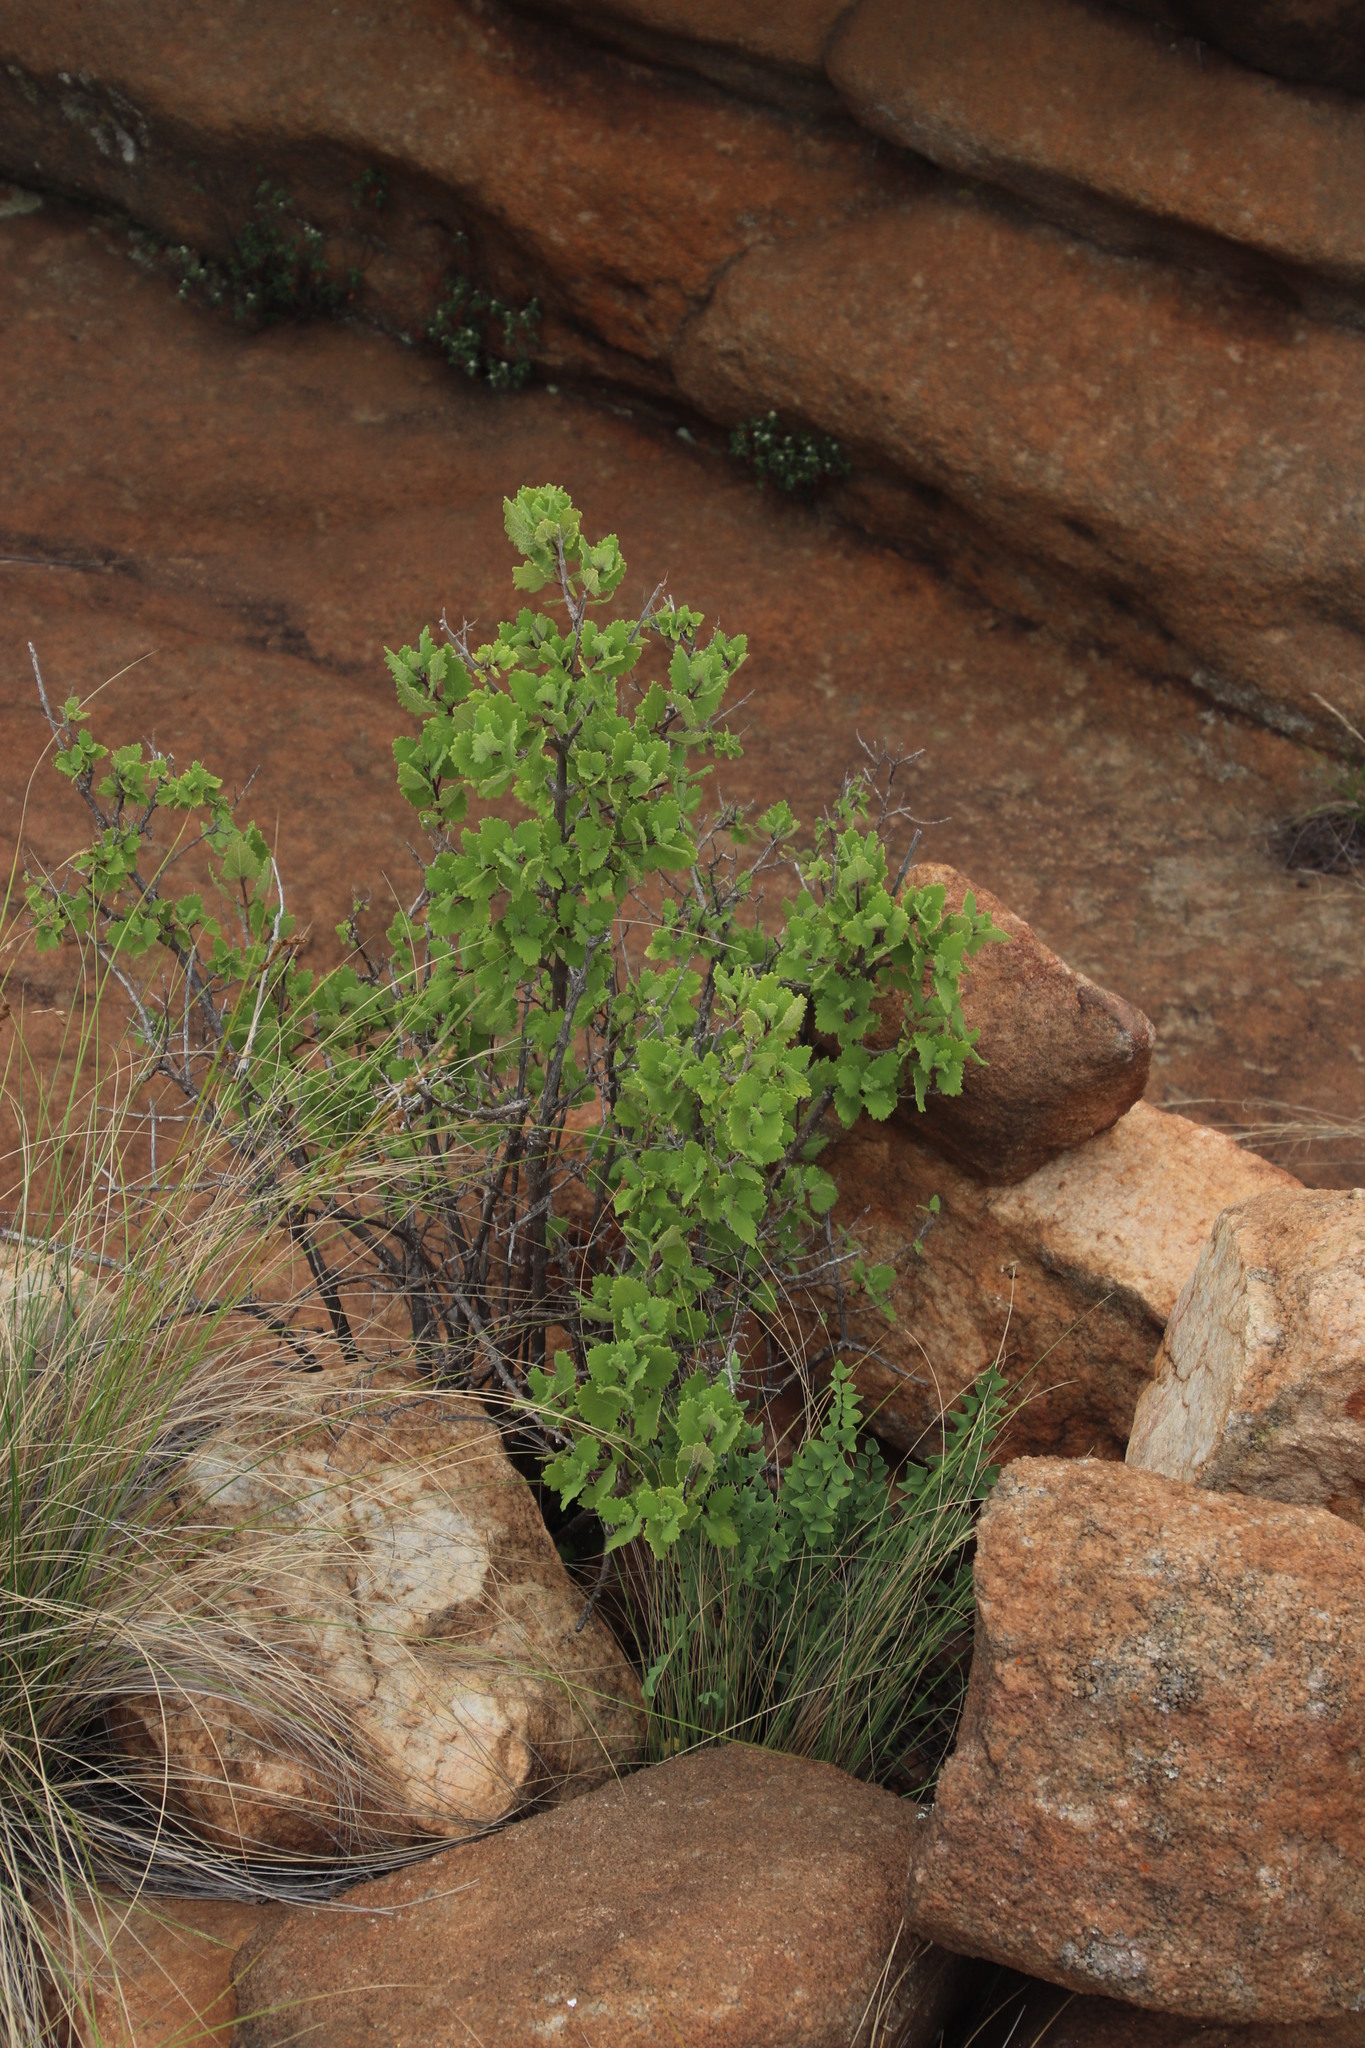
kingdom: Plantae
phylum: Tracheophyta
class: Magnoliopsida
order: Lamiales
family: Lamiaceae
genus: Tetradenia
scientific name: Tetradenia brevispicata
